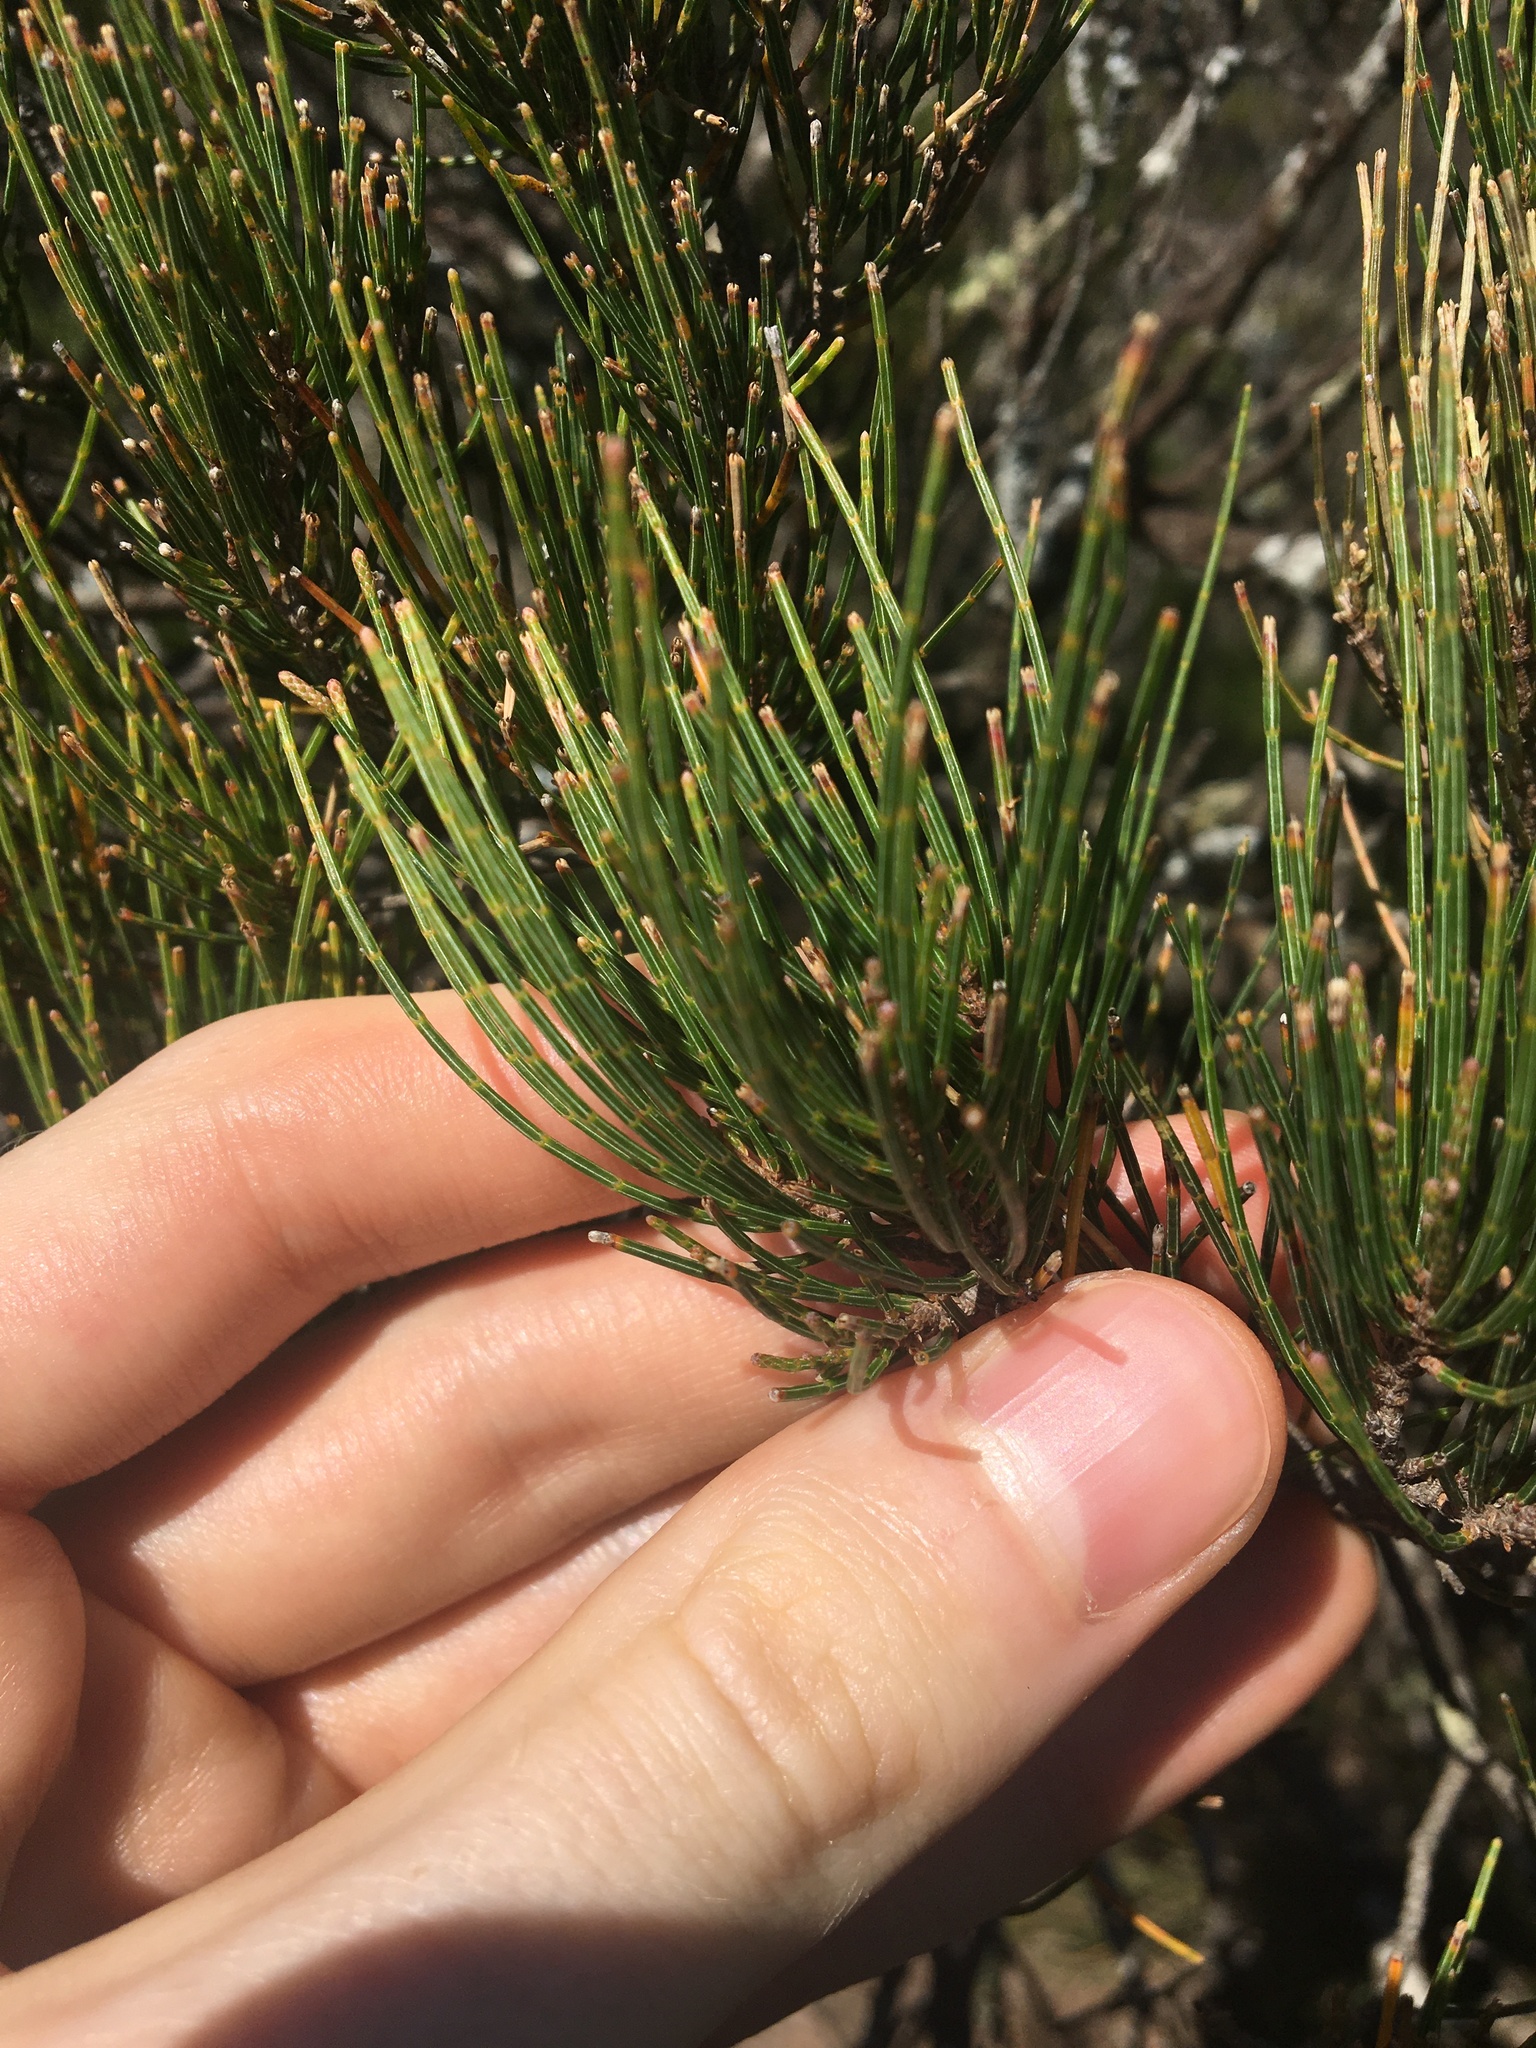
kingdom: Plantae
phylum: Tracheophyta
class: Magnoliopsida
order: Fagales
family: Casuarinaceae
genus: Allocasuarina
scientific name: Allocasuarina nana
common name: Stunted she-oak
